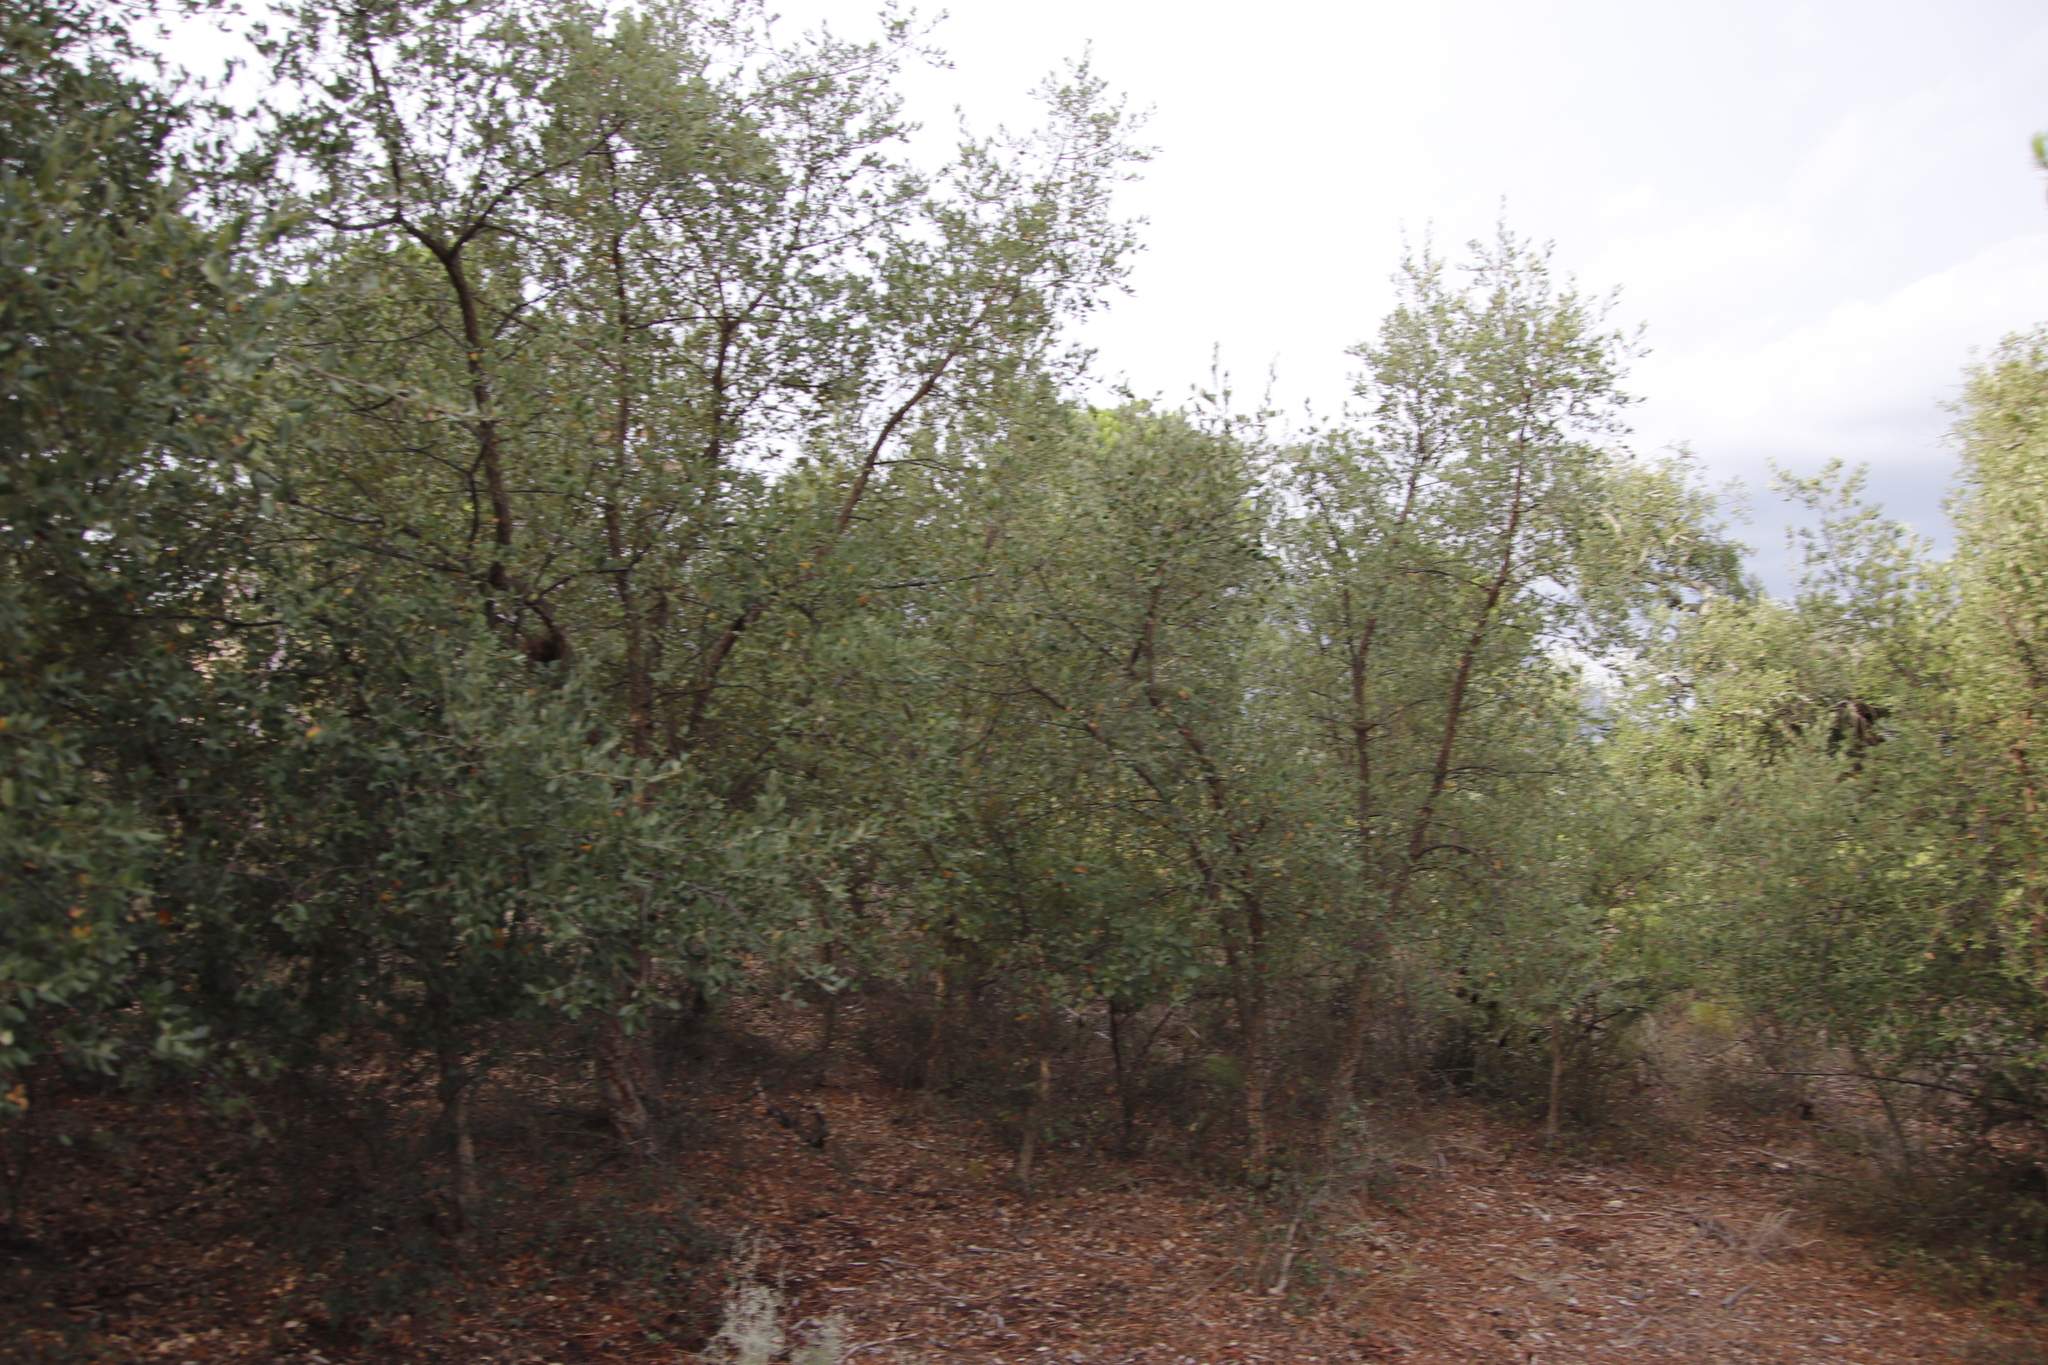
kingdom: Plantae
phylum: Tracheophyta
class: Magnoliopsida
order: Fagales
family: Fagaceae
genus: Quercus
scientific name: Quercus suber
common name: Cork oak
